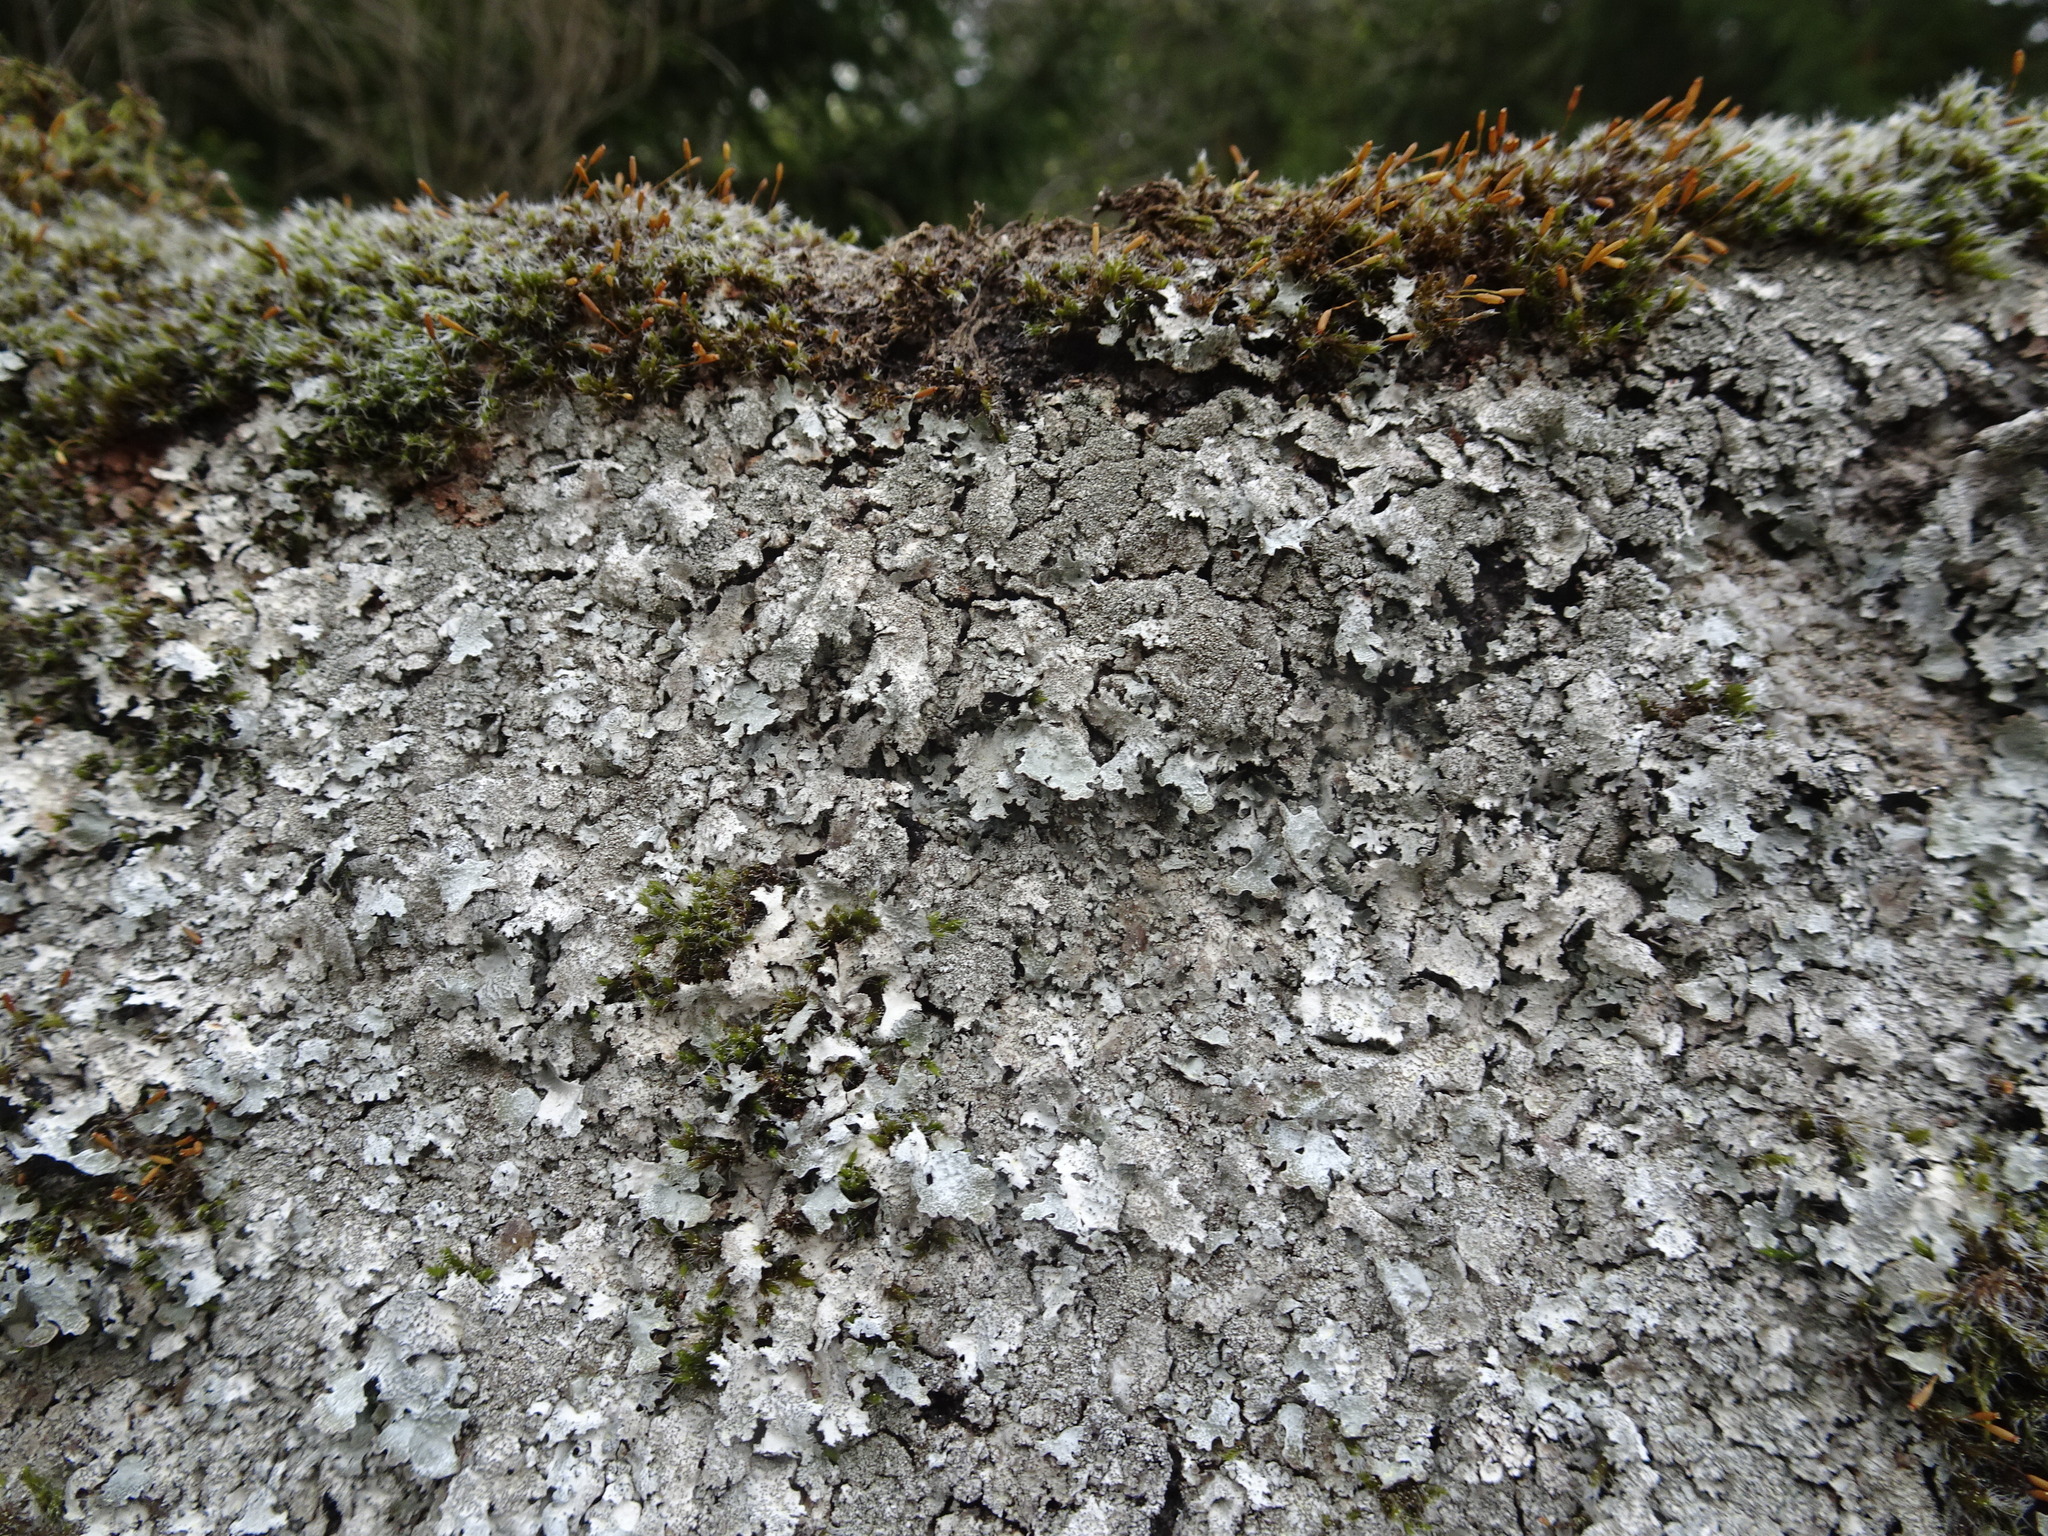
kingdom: Fungi
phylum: Ascomycota
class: Lecanoromycetes
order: Lecanorales
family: Parmeliaceae
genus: Parmelia
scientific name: Parmelia saxatilis
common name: Salted shield lichen
